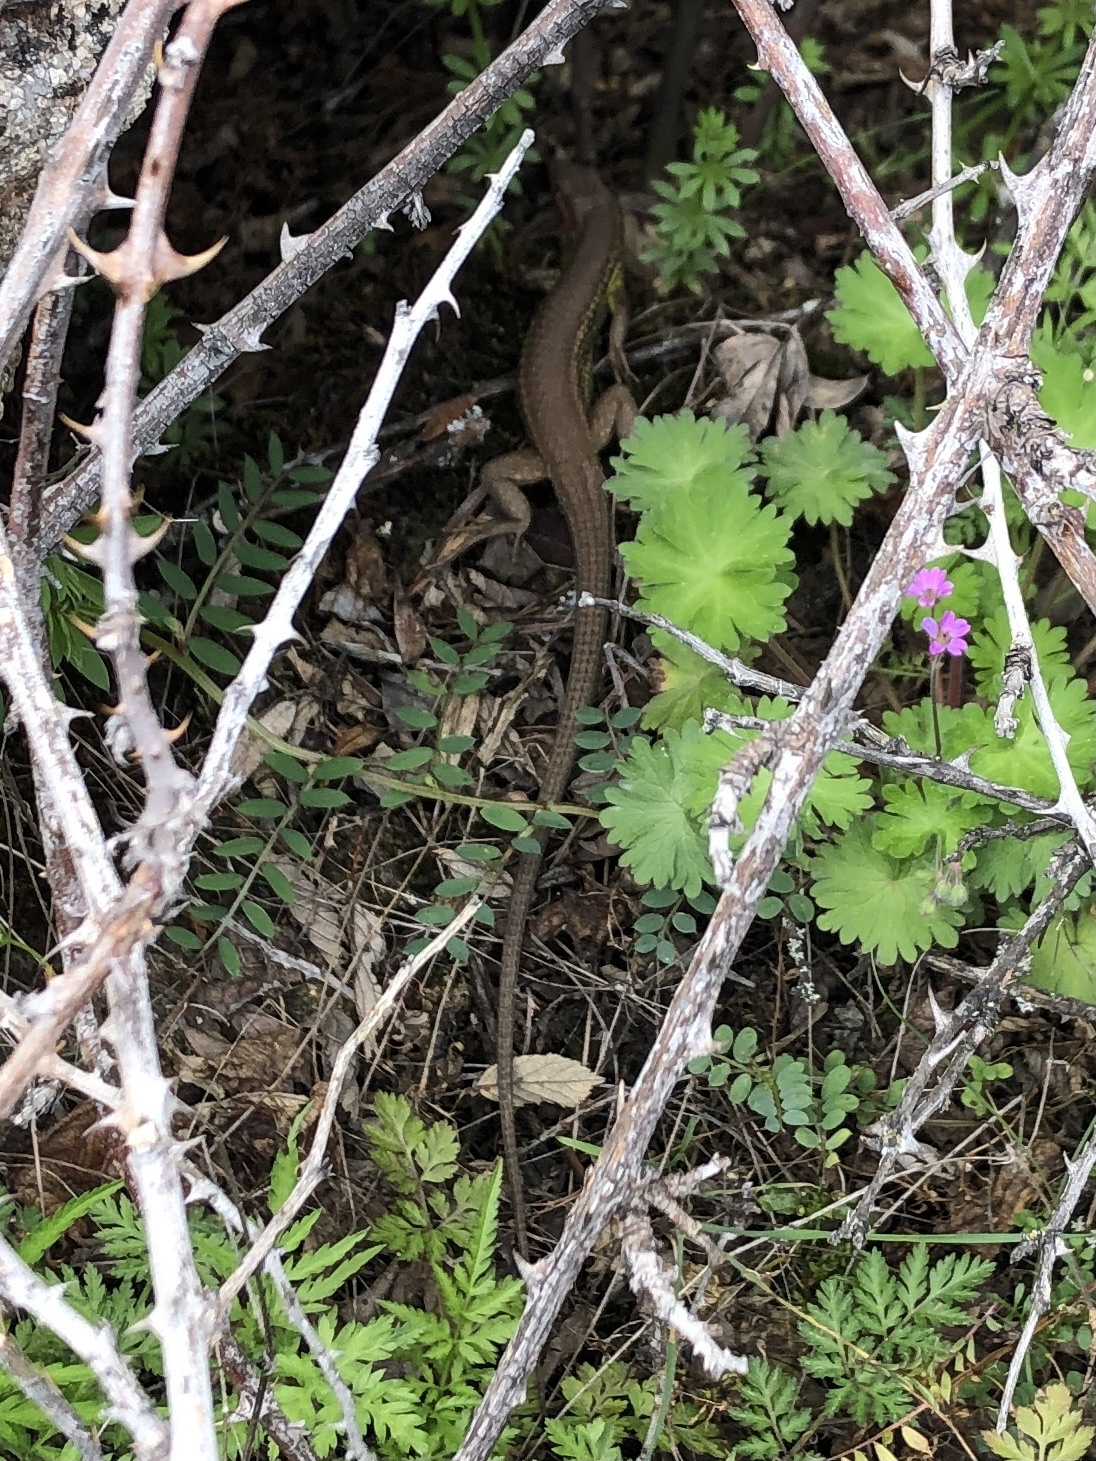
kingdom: Animalia
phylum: Chordata
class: Squamata
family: Lacertidae
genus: Psammodromus
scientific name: Psammodromus algirus
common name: Algerian psammodromus
